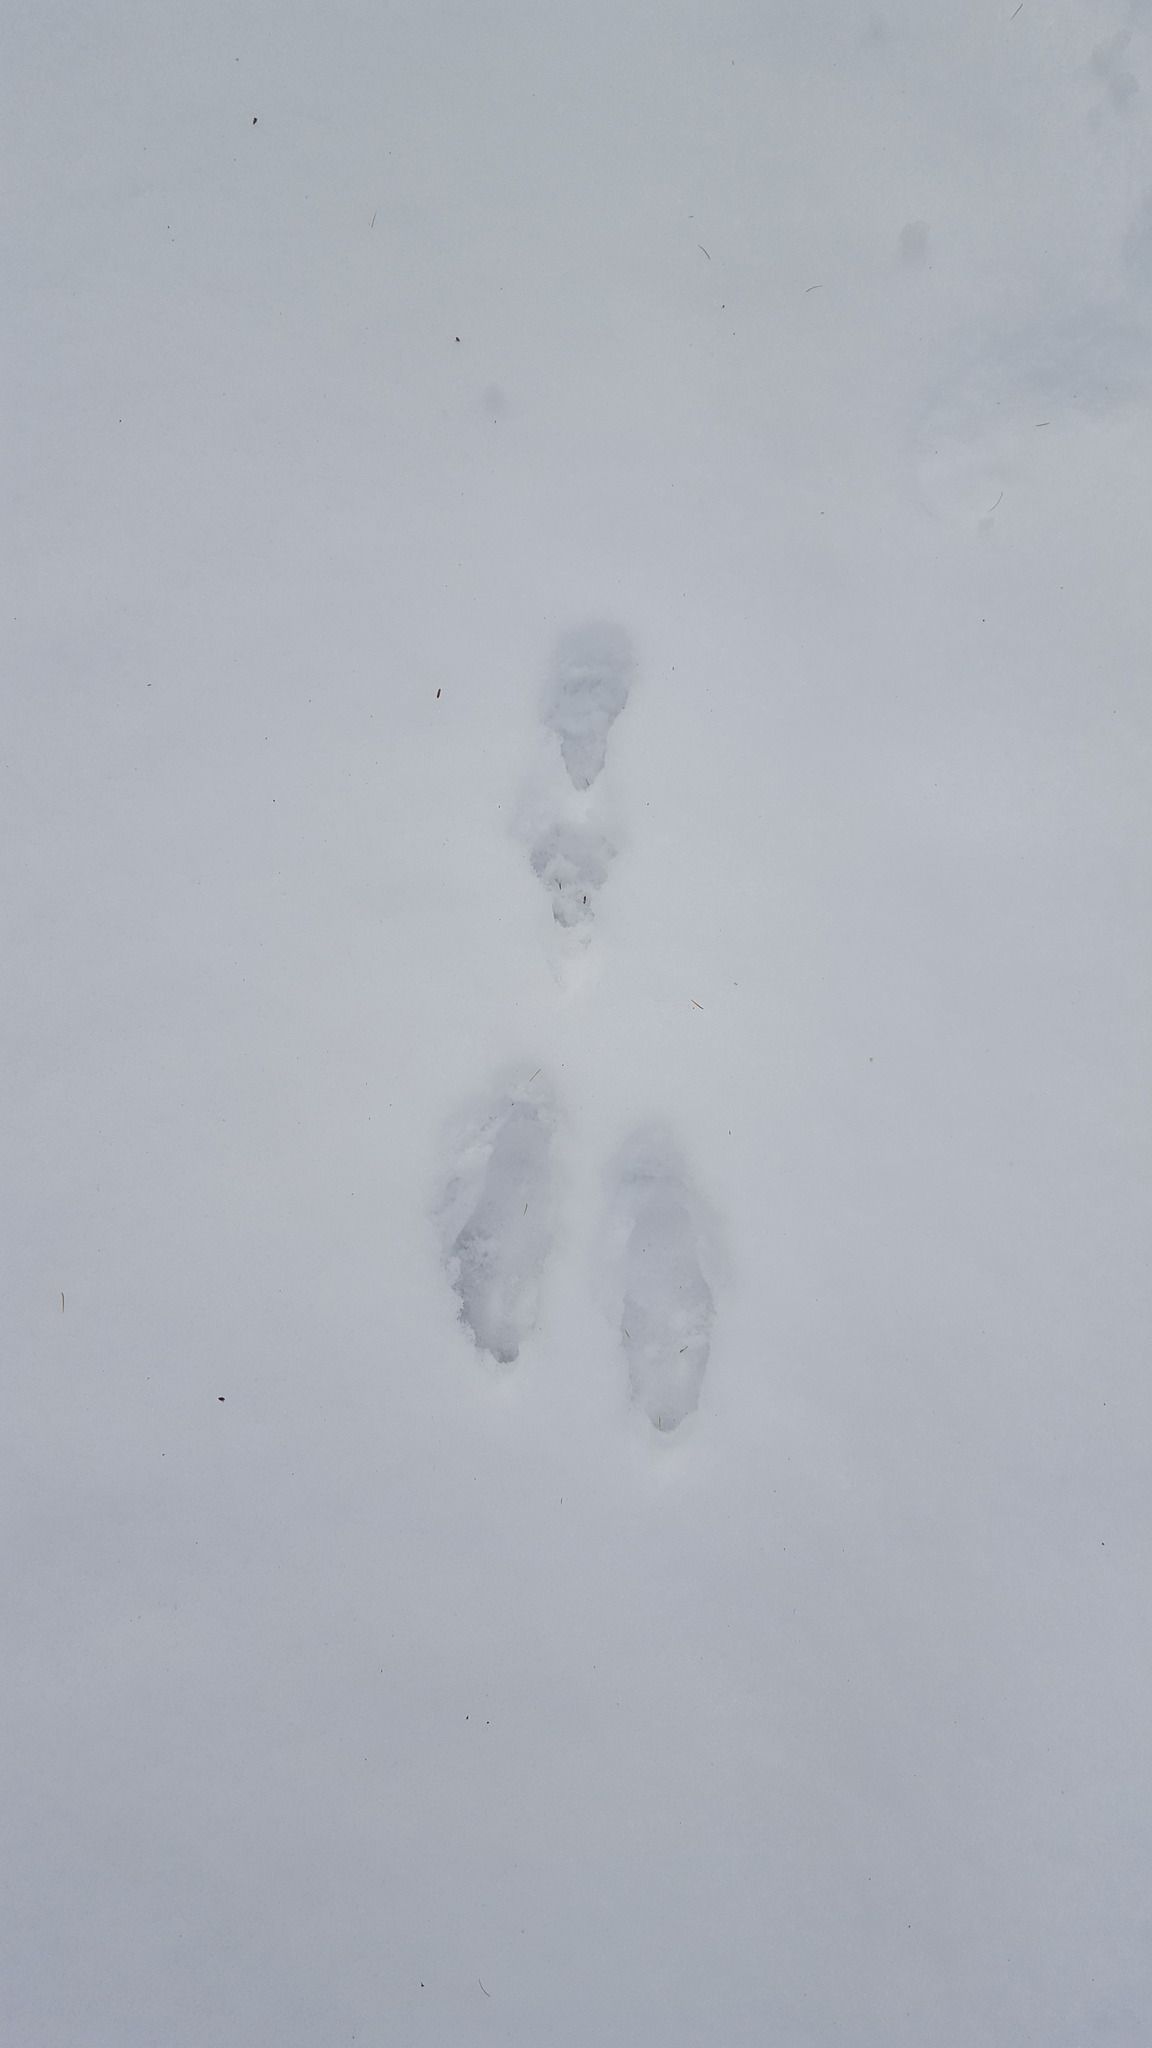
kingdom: Animalia
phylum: Chordata
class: Mammalia
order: Lagomorpha
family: Leporidae
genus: Lepus
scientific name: Lepus americanus
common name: Snowshoe hare
